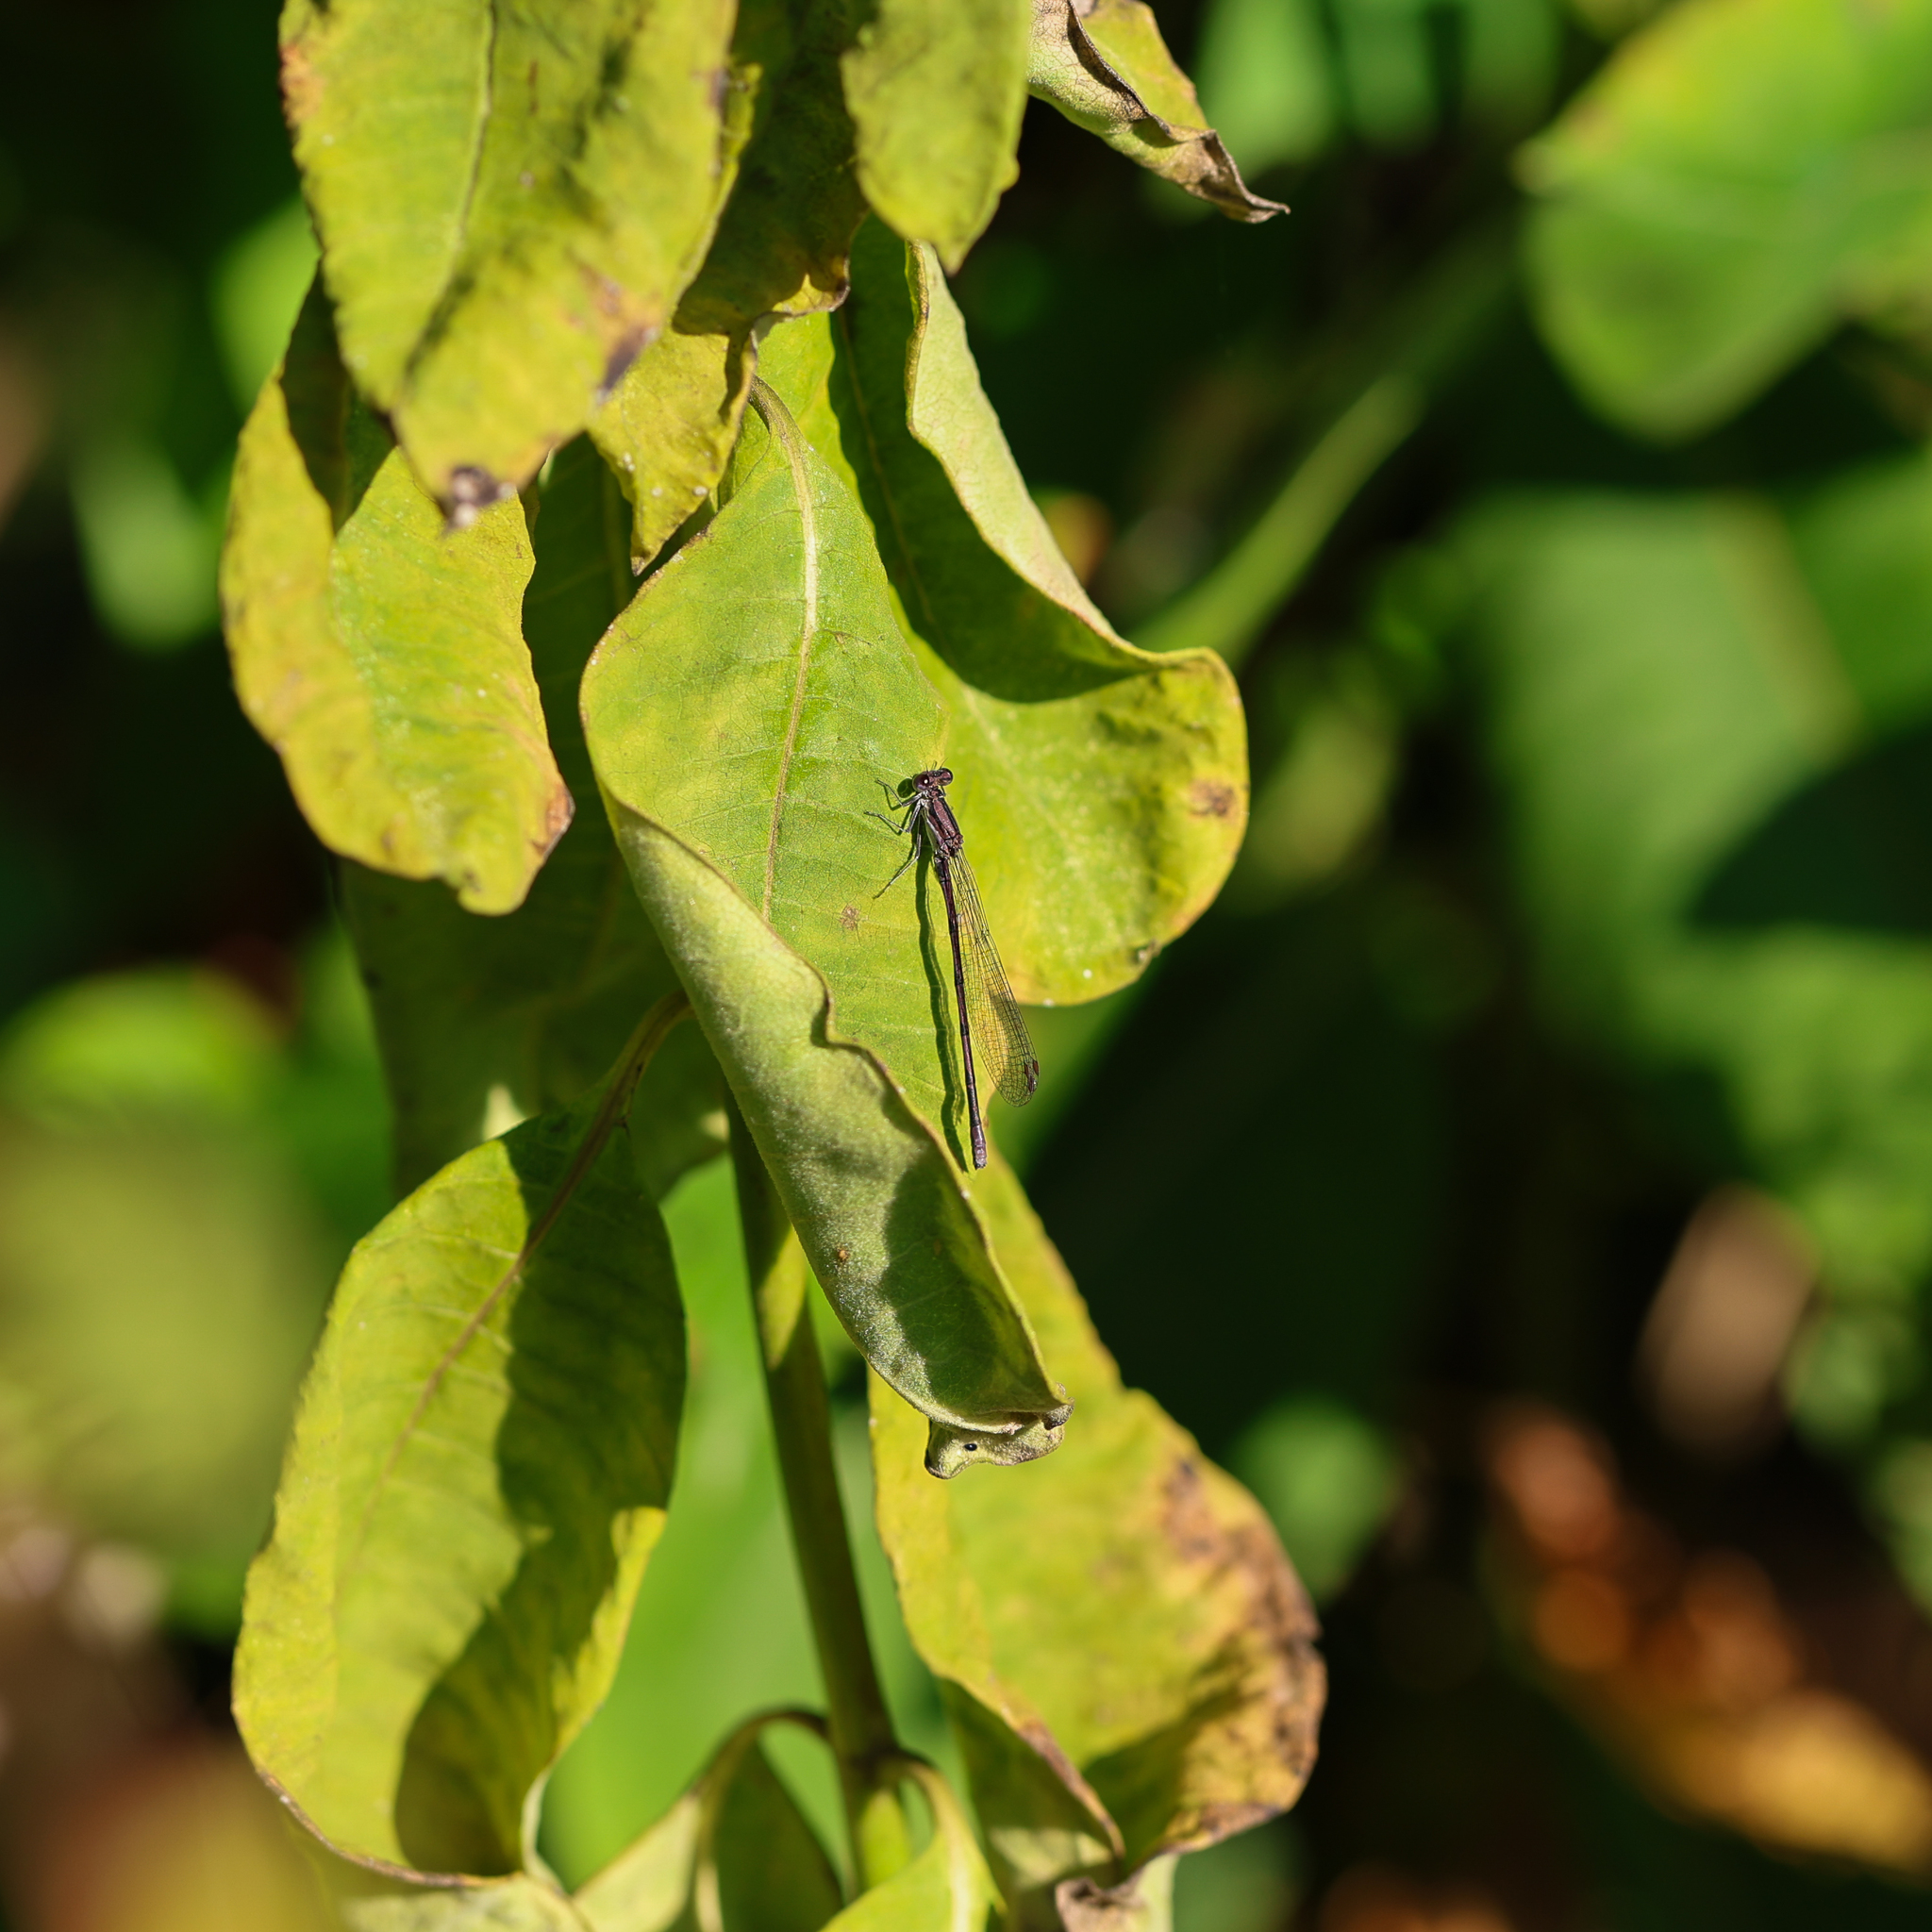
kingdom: Animalia
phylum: Arthropoda
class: Insecta
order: Odonata
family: Coenagrionidae
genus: Argia
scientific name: Argia fumipennis
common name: Variable dancer
